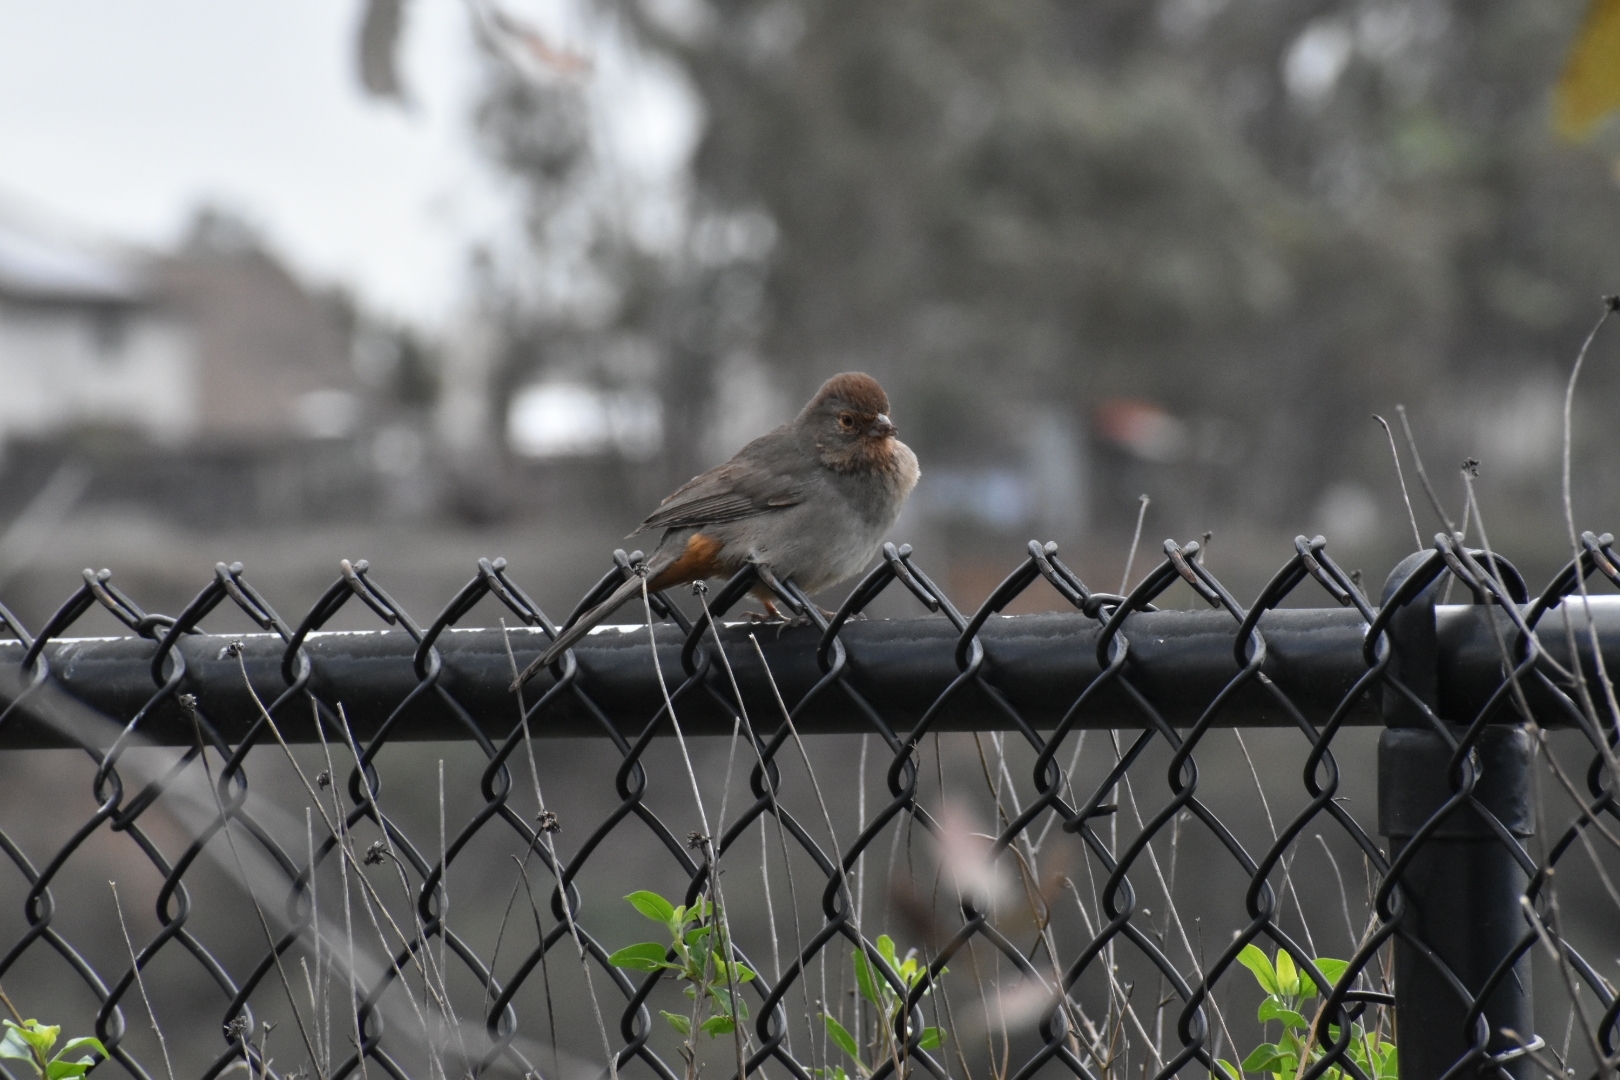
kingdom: Animalia
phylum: Chordata
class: Aves
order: Passeriformes
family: Passerellidae
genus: Melozone
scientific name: Melozone crissalis
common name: California towhee
